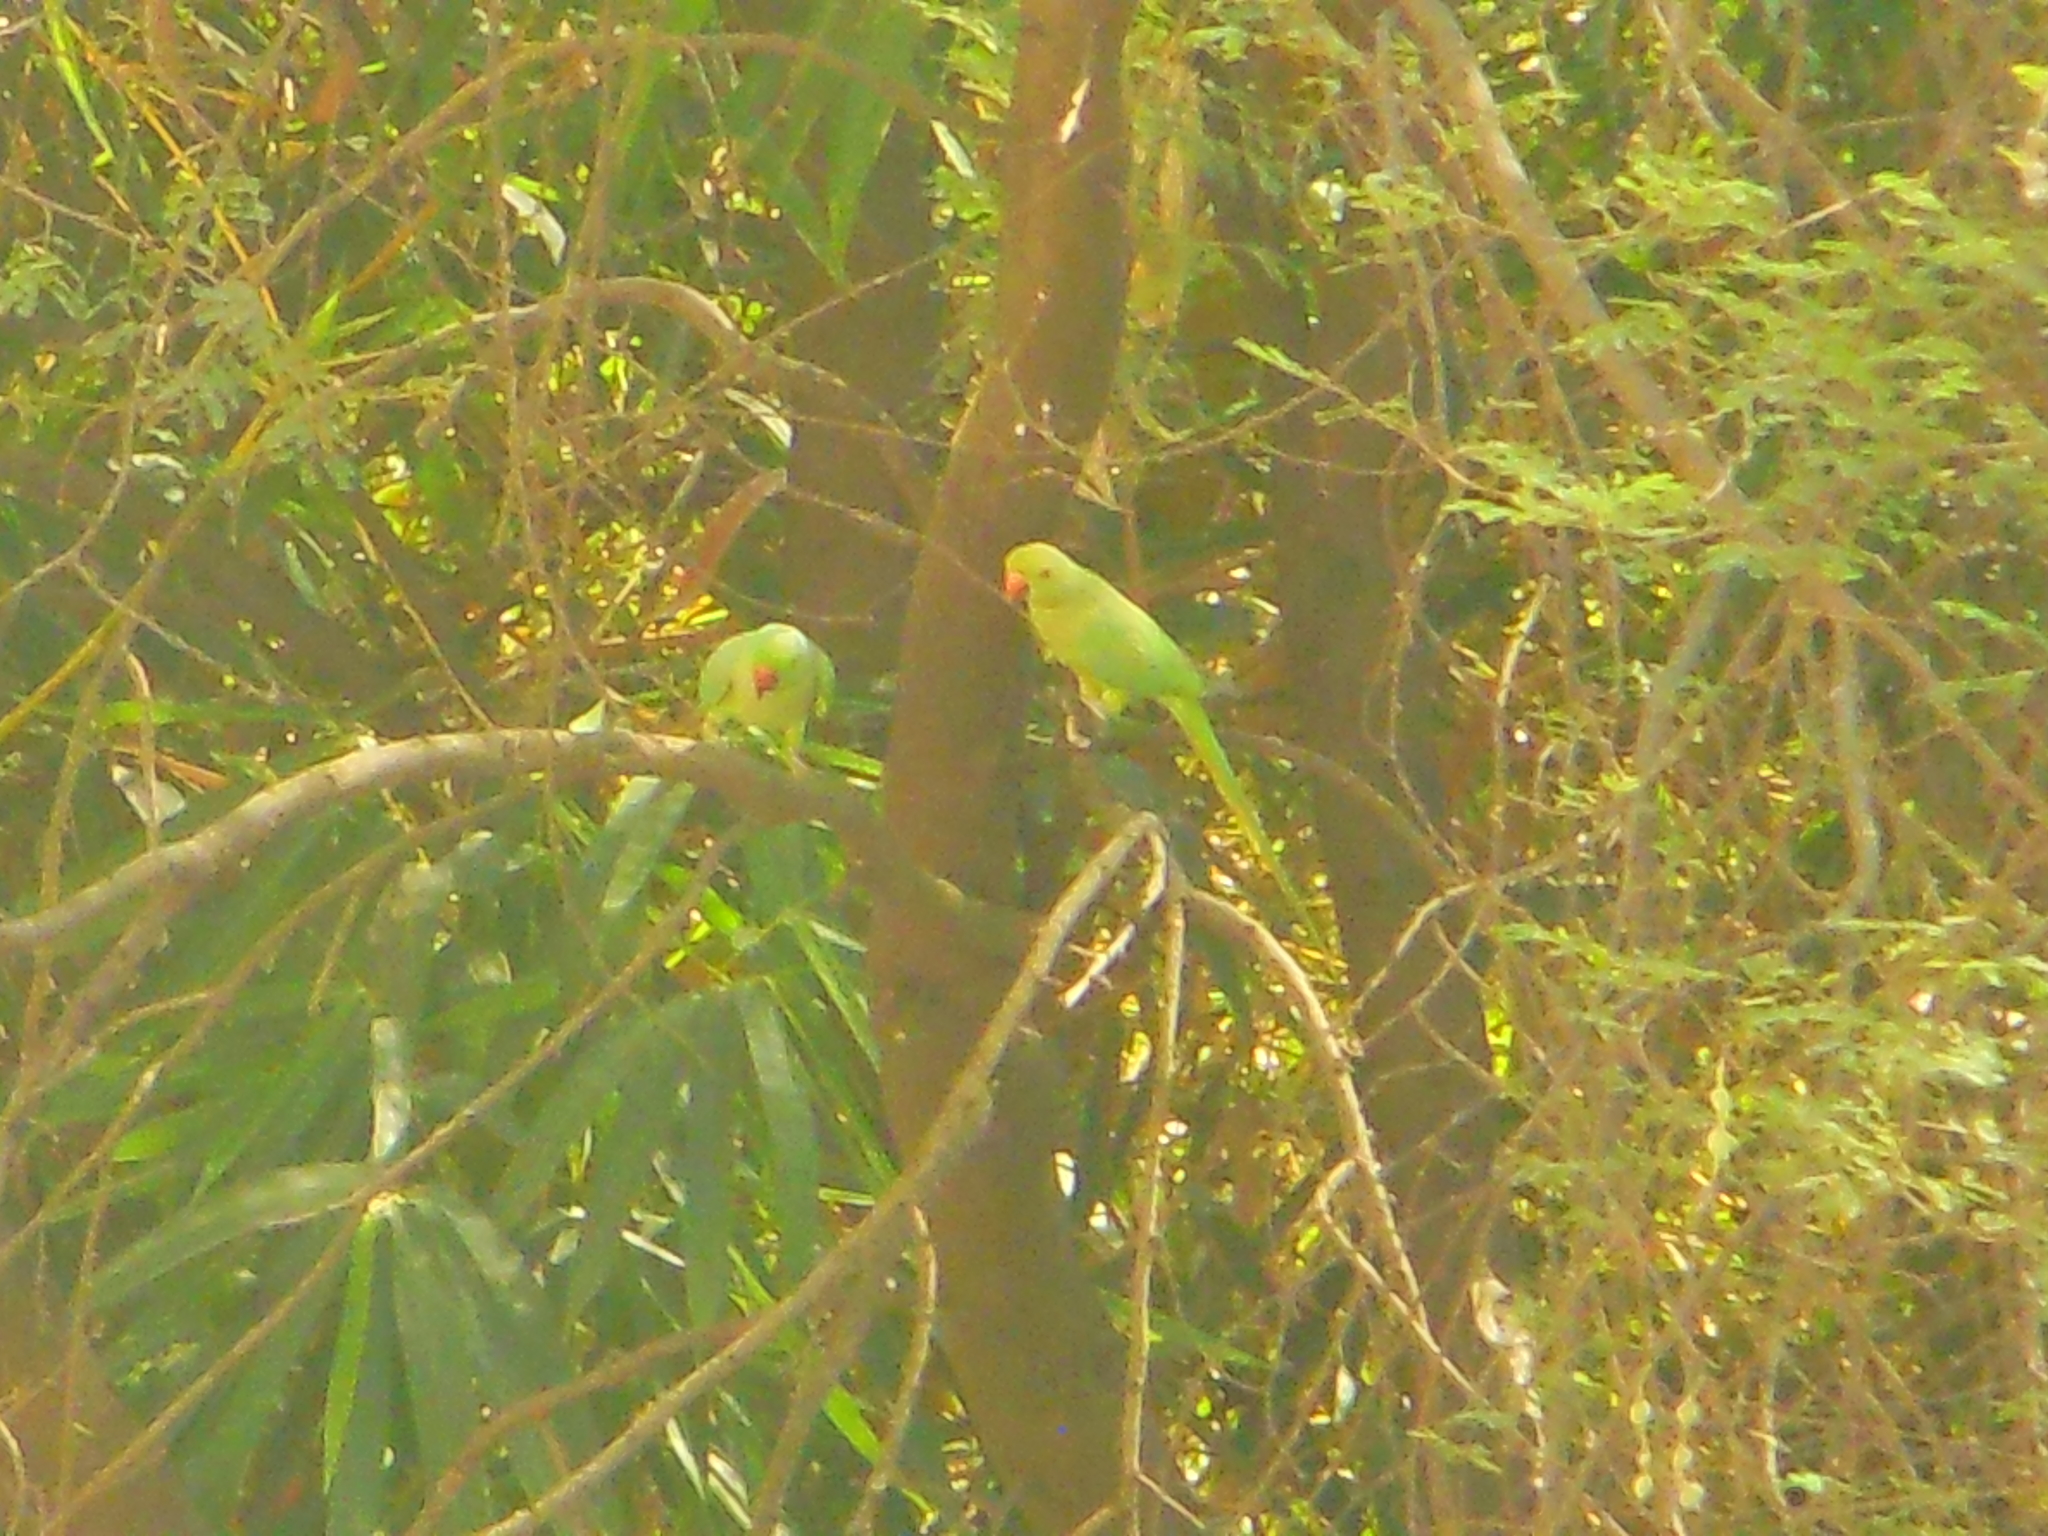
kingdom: Animalia
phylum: Chordata
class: Aves
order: Psittaciformes
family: Psittacidae
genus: Psittacula
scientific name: Psittacula krameri
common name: Rose-ringed parakeet
